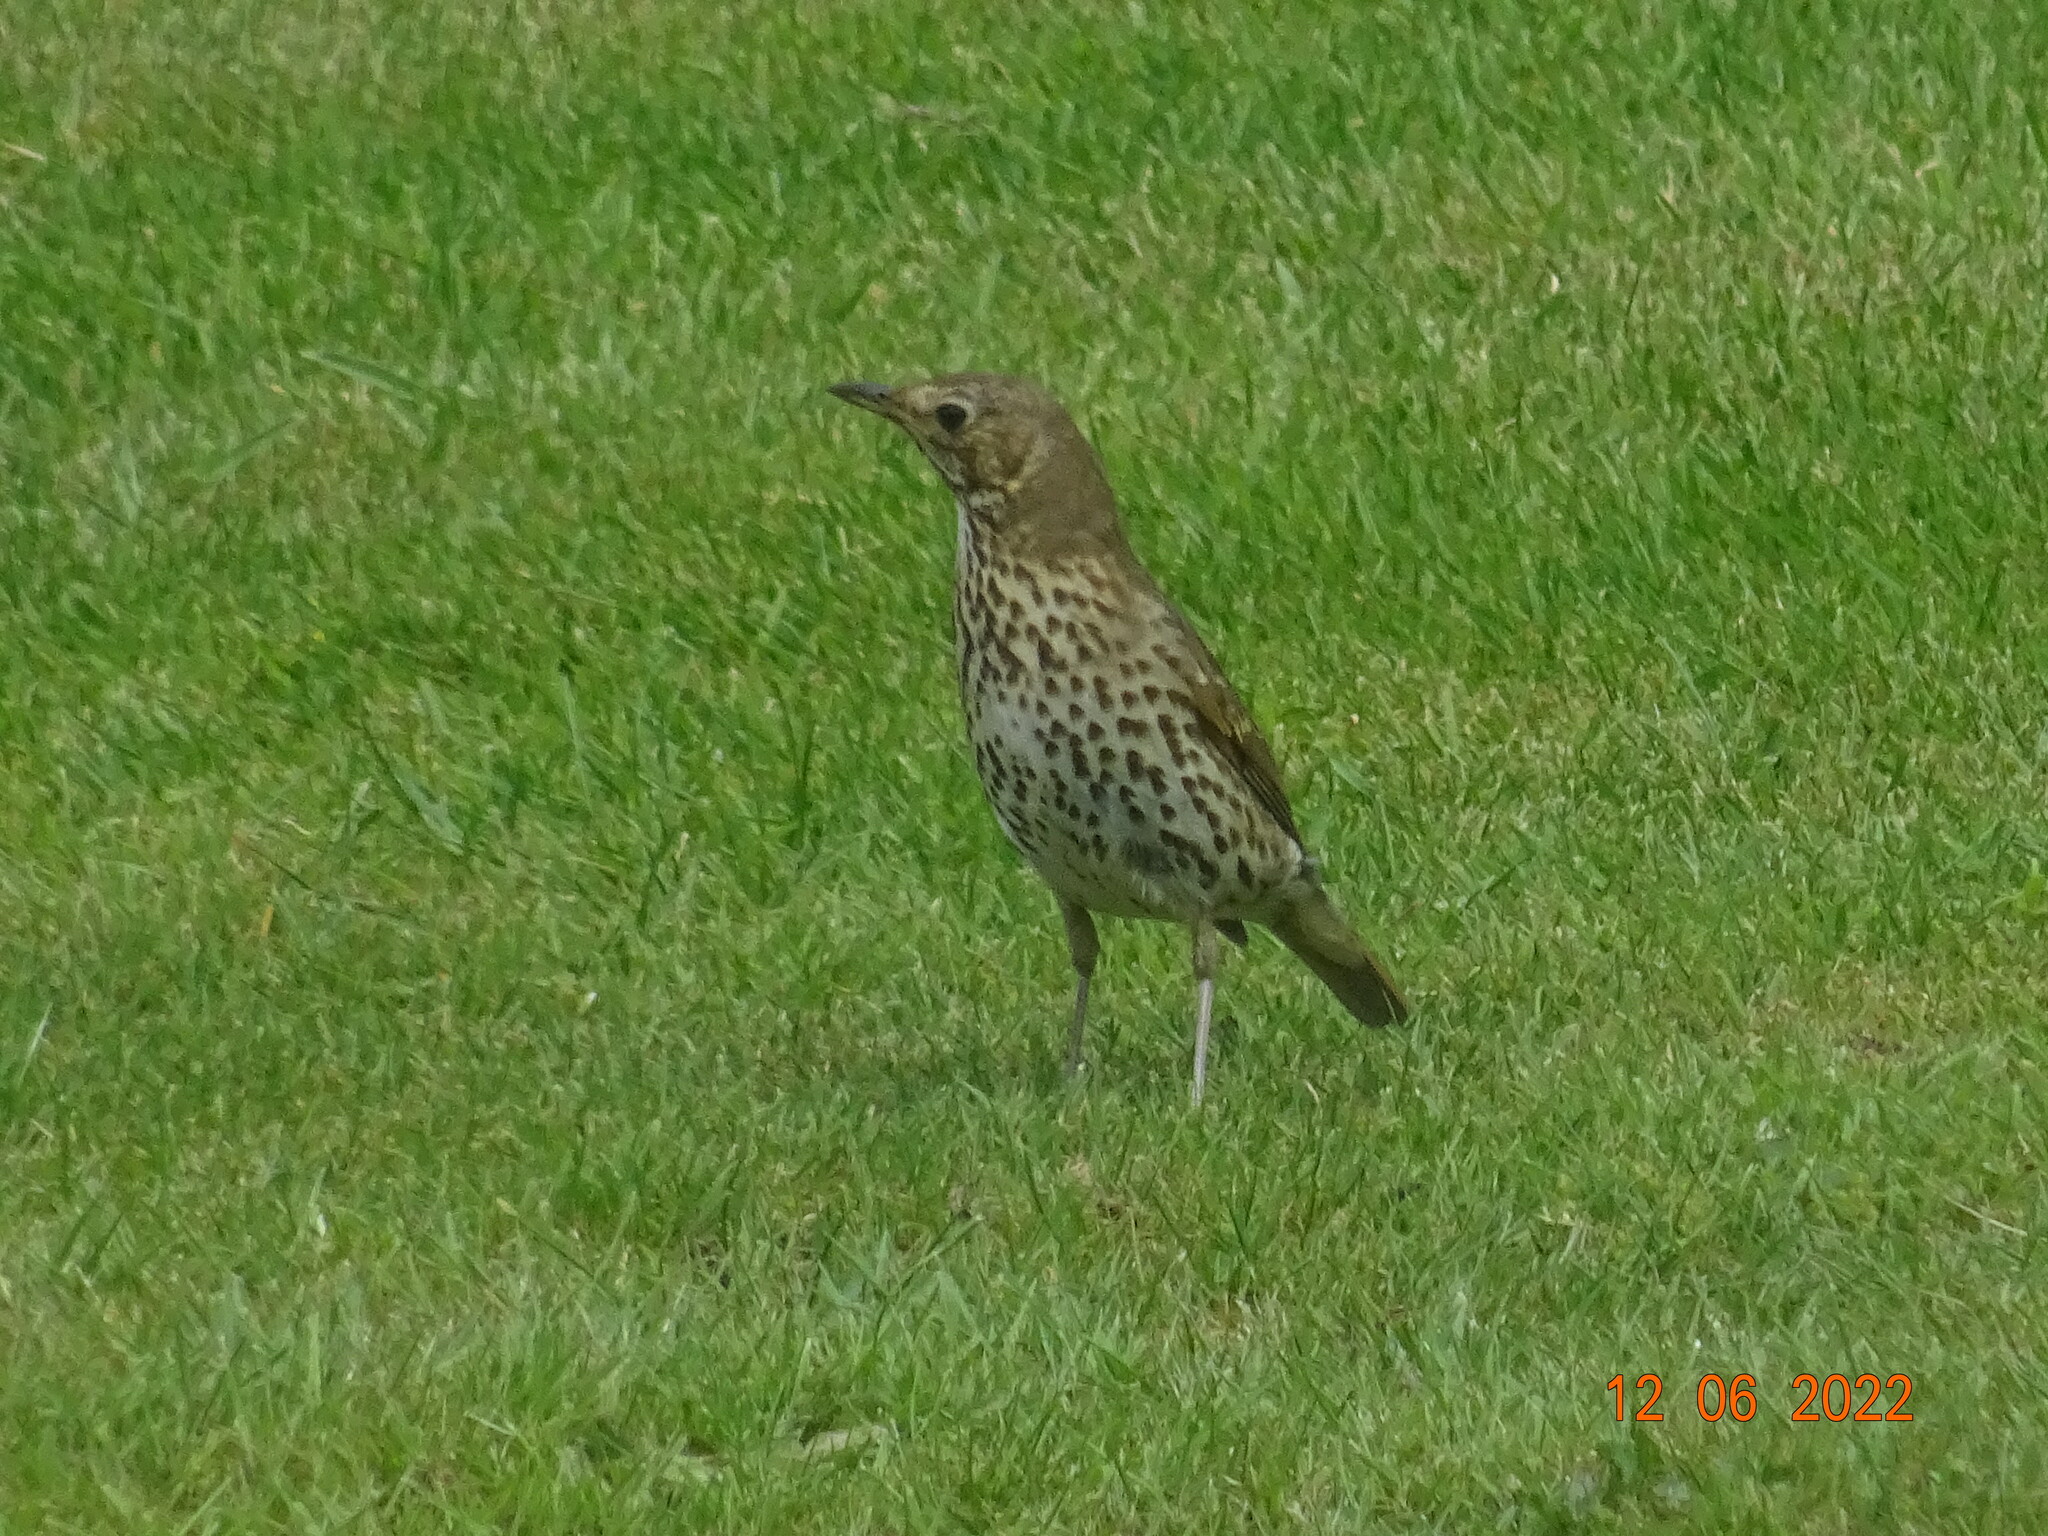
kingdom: Animalia
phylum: Chordata
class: Aves
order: Passeriformes
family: Turdidae
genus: Turdus
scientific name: Turdus philomelos
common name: Song thrush
